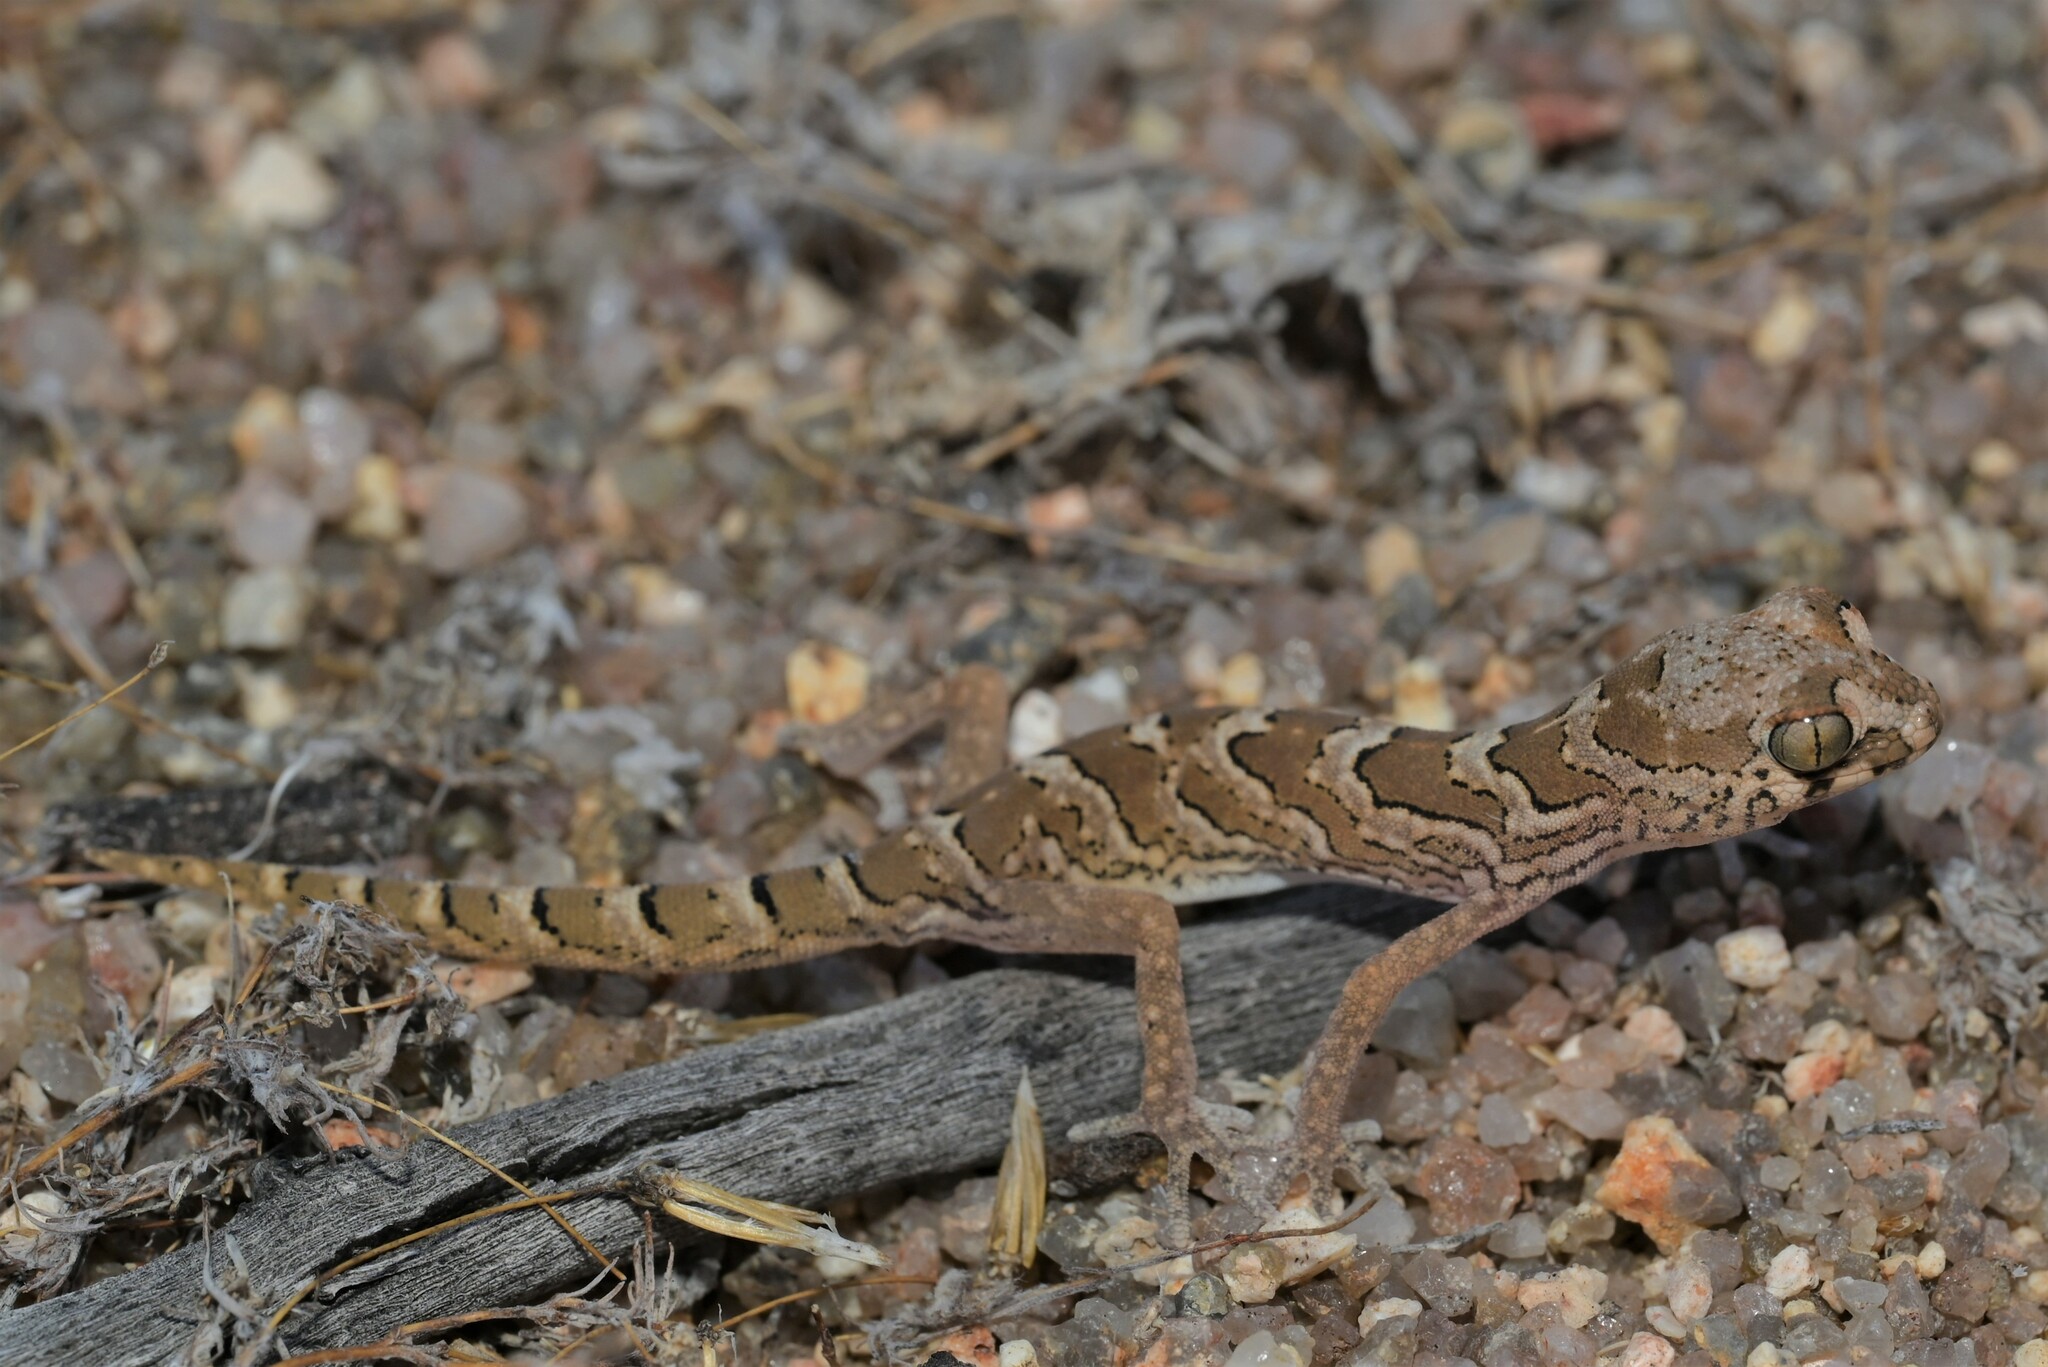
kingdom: Animalia
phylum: Chordata
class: Squamata
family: Gekkonidae
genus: Pachydactylus
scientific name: Pachydactylus macrolepis
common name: Large-scaled banded gecko
